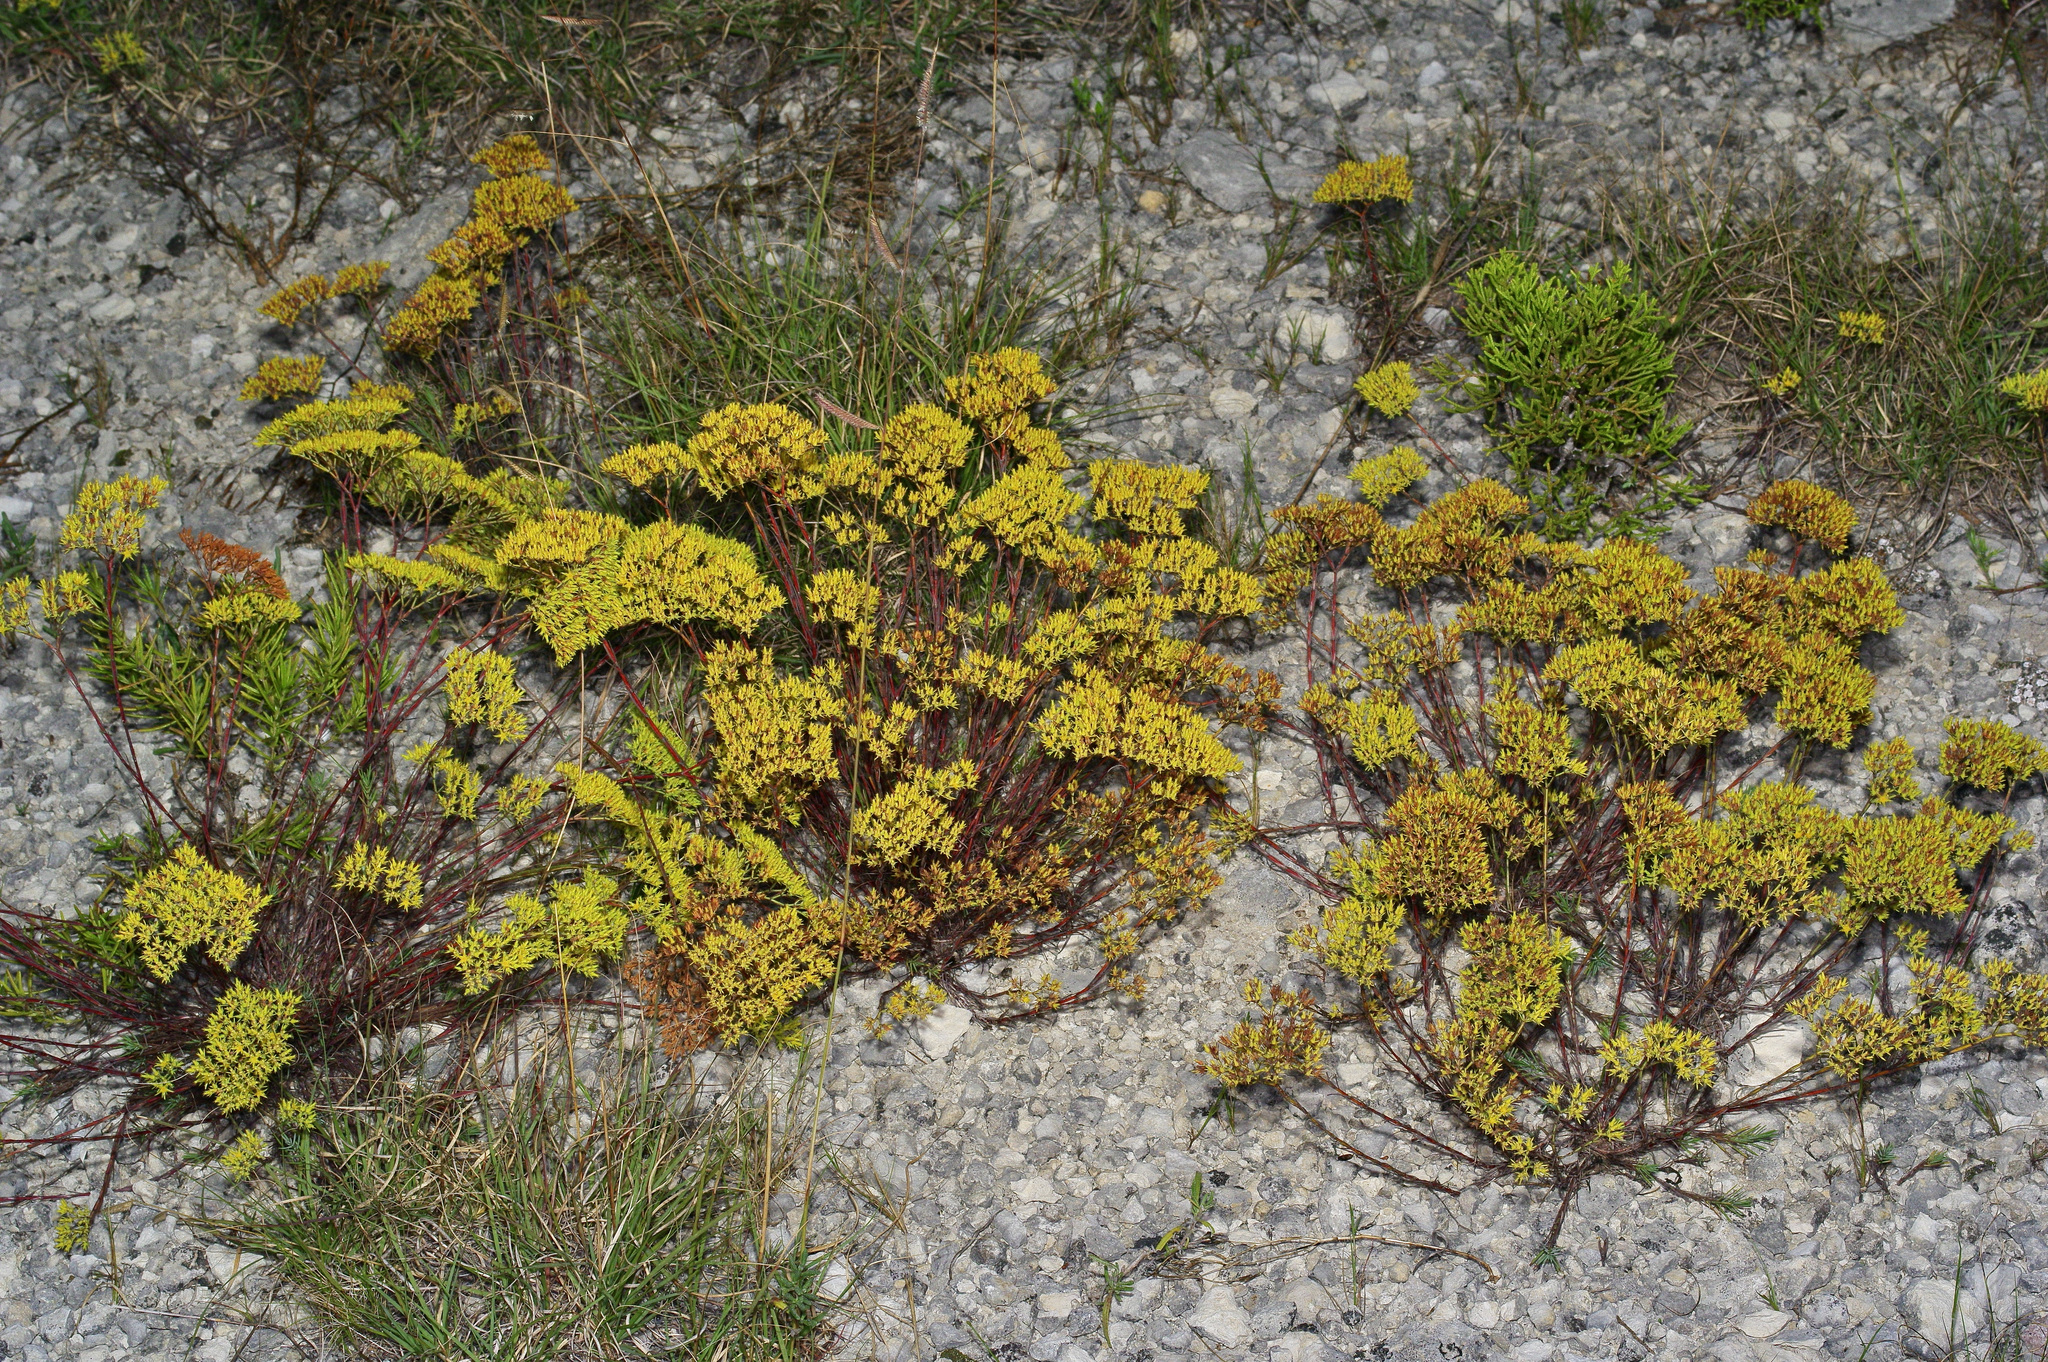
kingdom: Plantae
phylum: Tracheophyta
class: Magnoliopsida
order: Caryophyllales
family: Caryophyllaceae
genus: Paronychia
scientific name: Paronychia virginica
